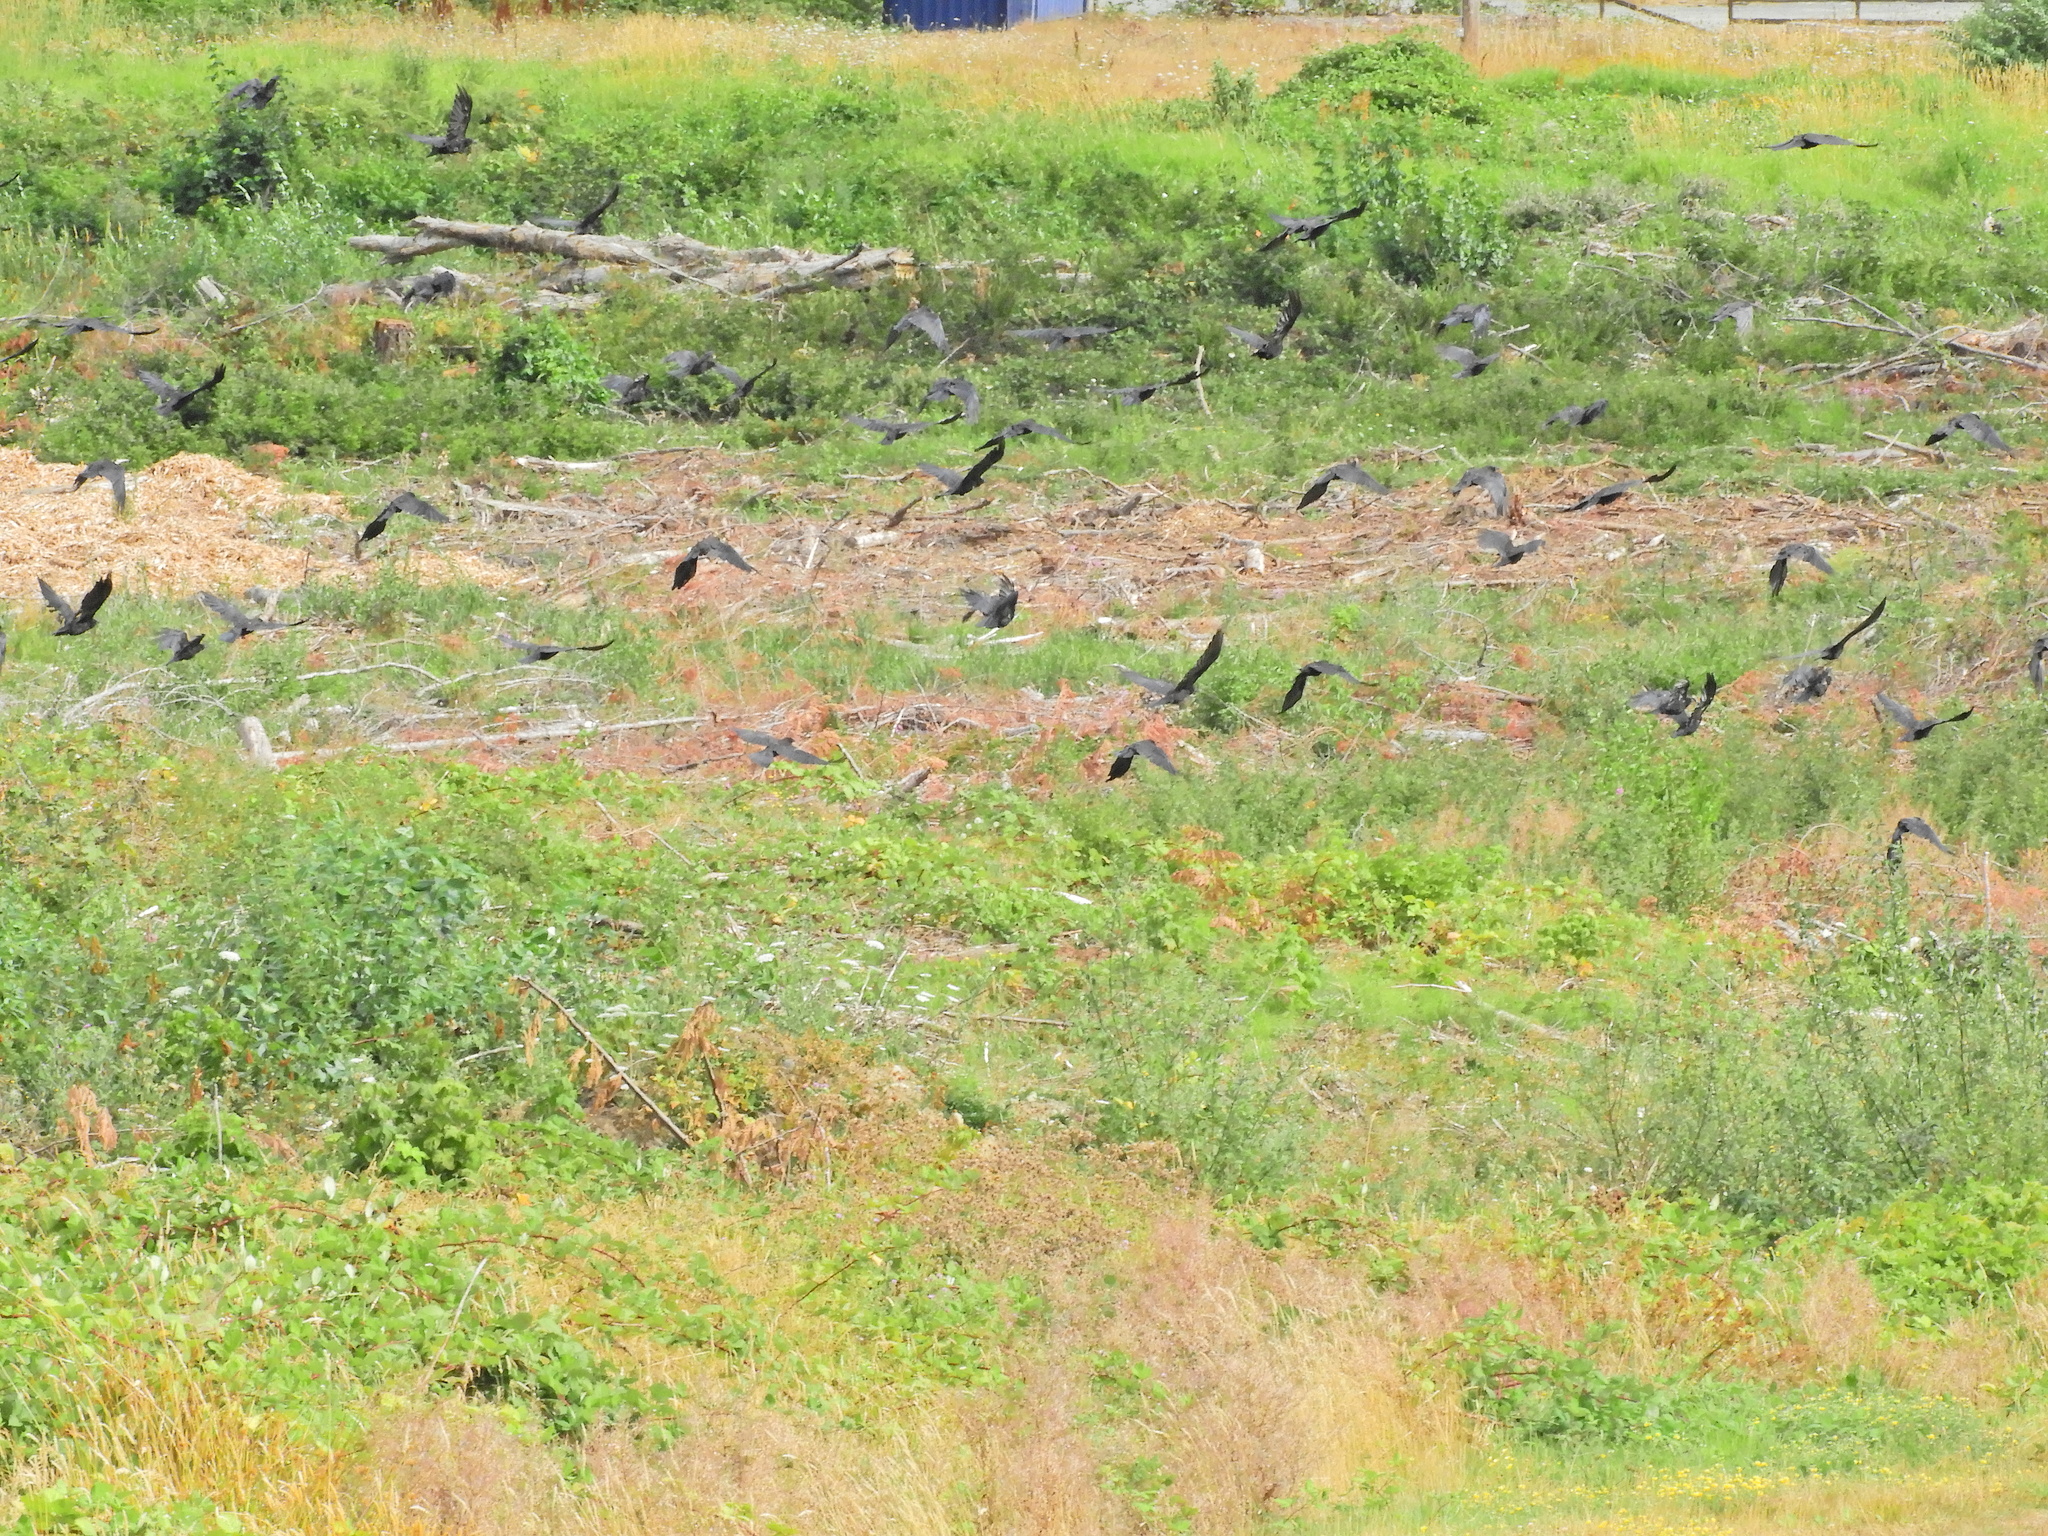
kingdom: Animalia
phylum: Chordata
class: Aves
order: Passeriformes
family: Corvidae
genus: Corvus
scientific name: Corvus brachyrhynchos
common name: American crow
